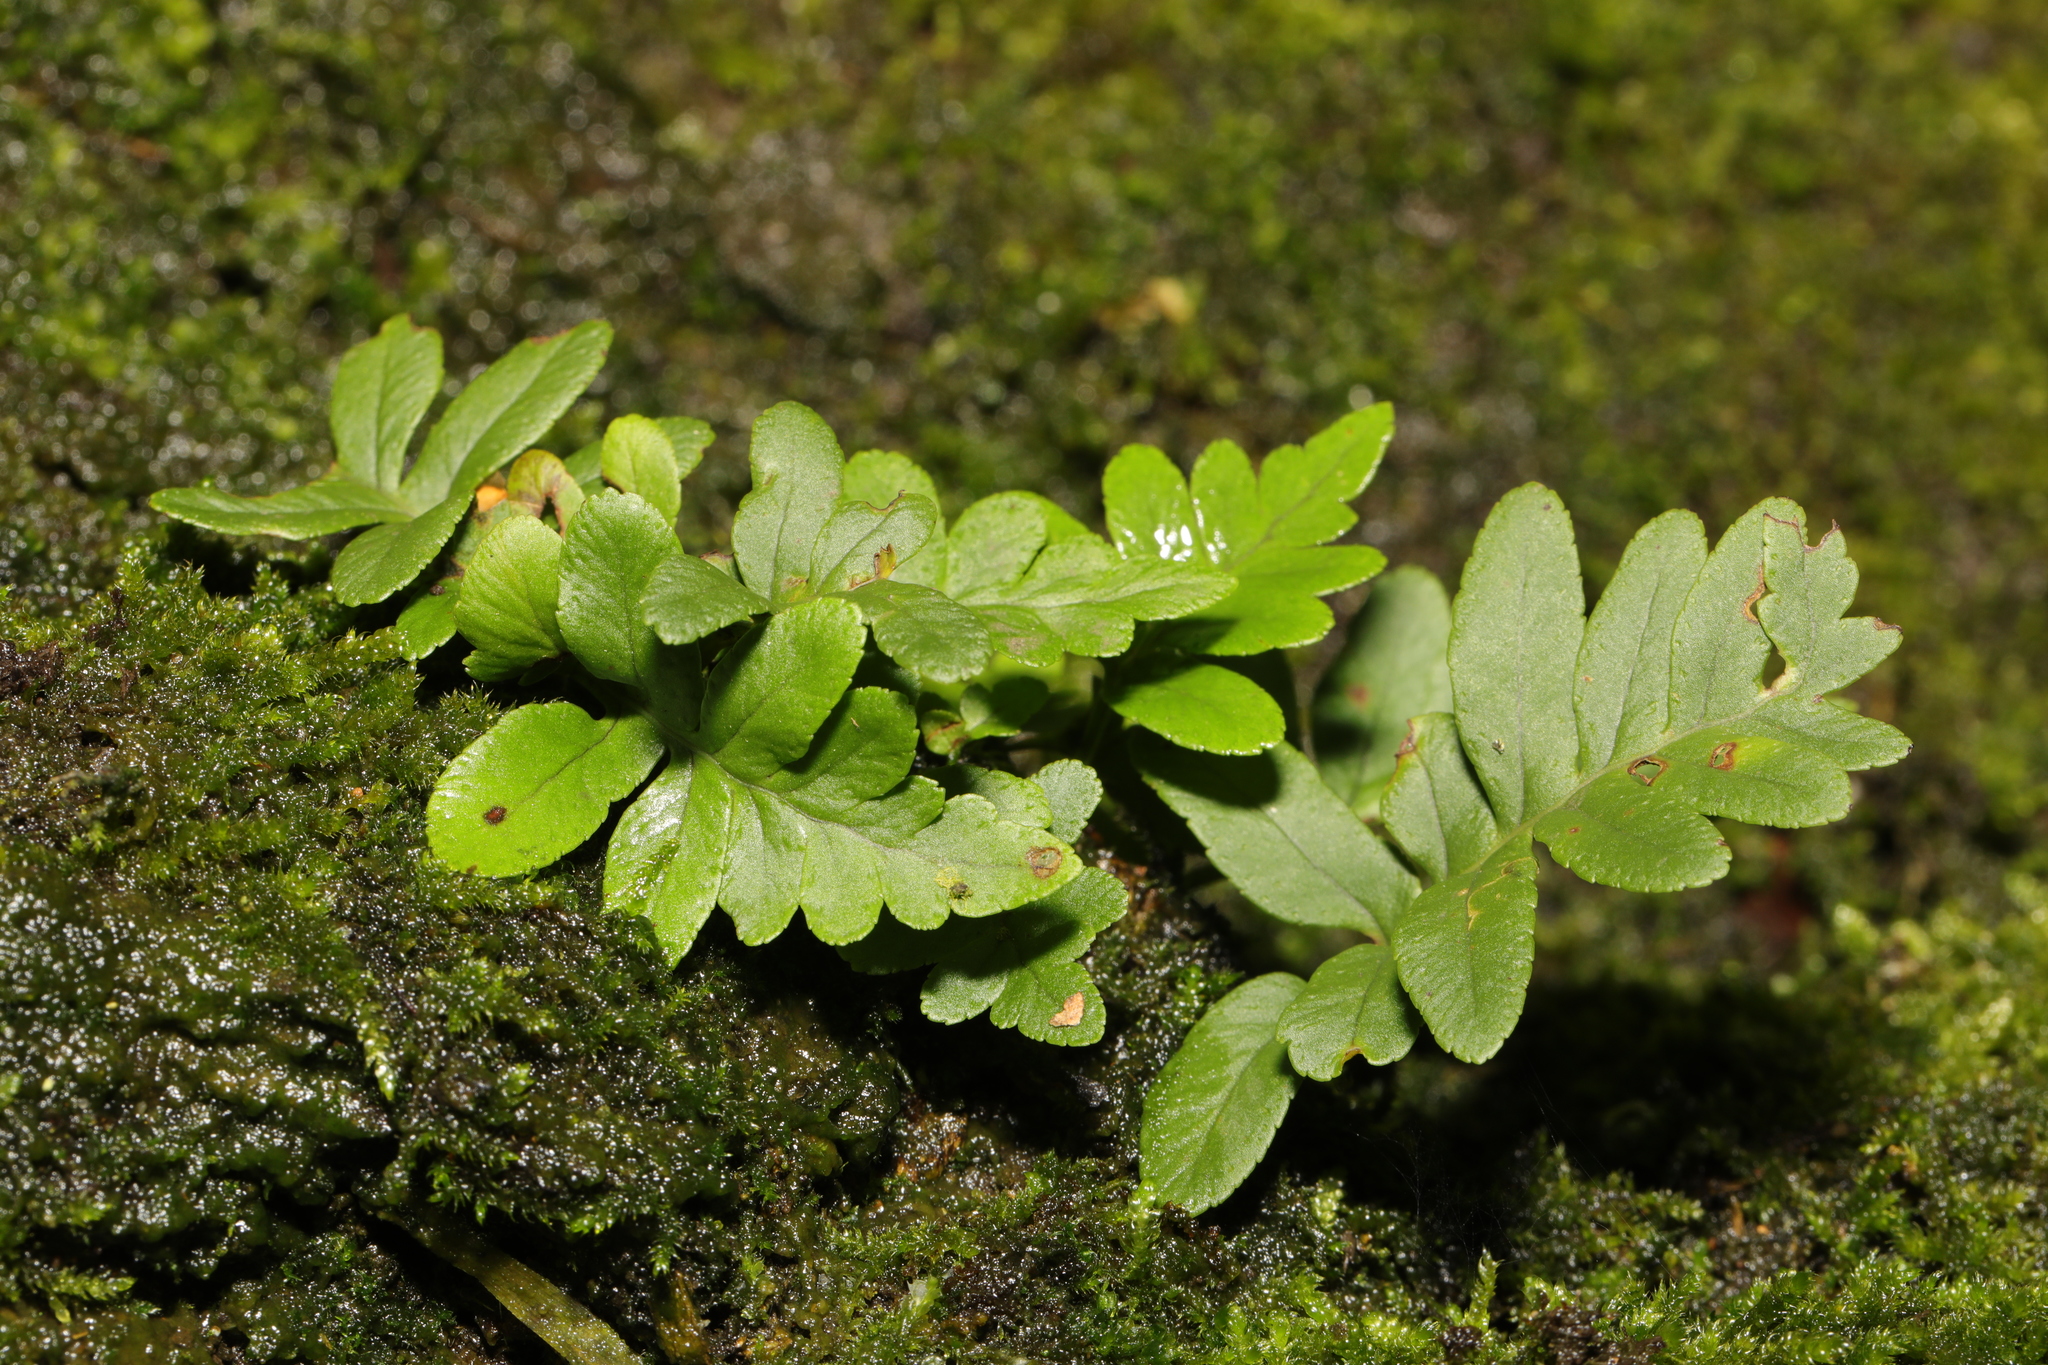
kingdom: Plantae
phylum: Tracheophyta
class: Polypodiopsida
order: Polypodiales
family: Polypodiaceae
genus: Polypodium
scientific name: Polypodium vulgare
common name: Common polypody
